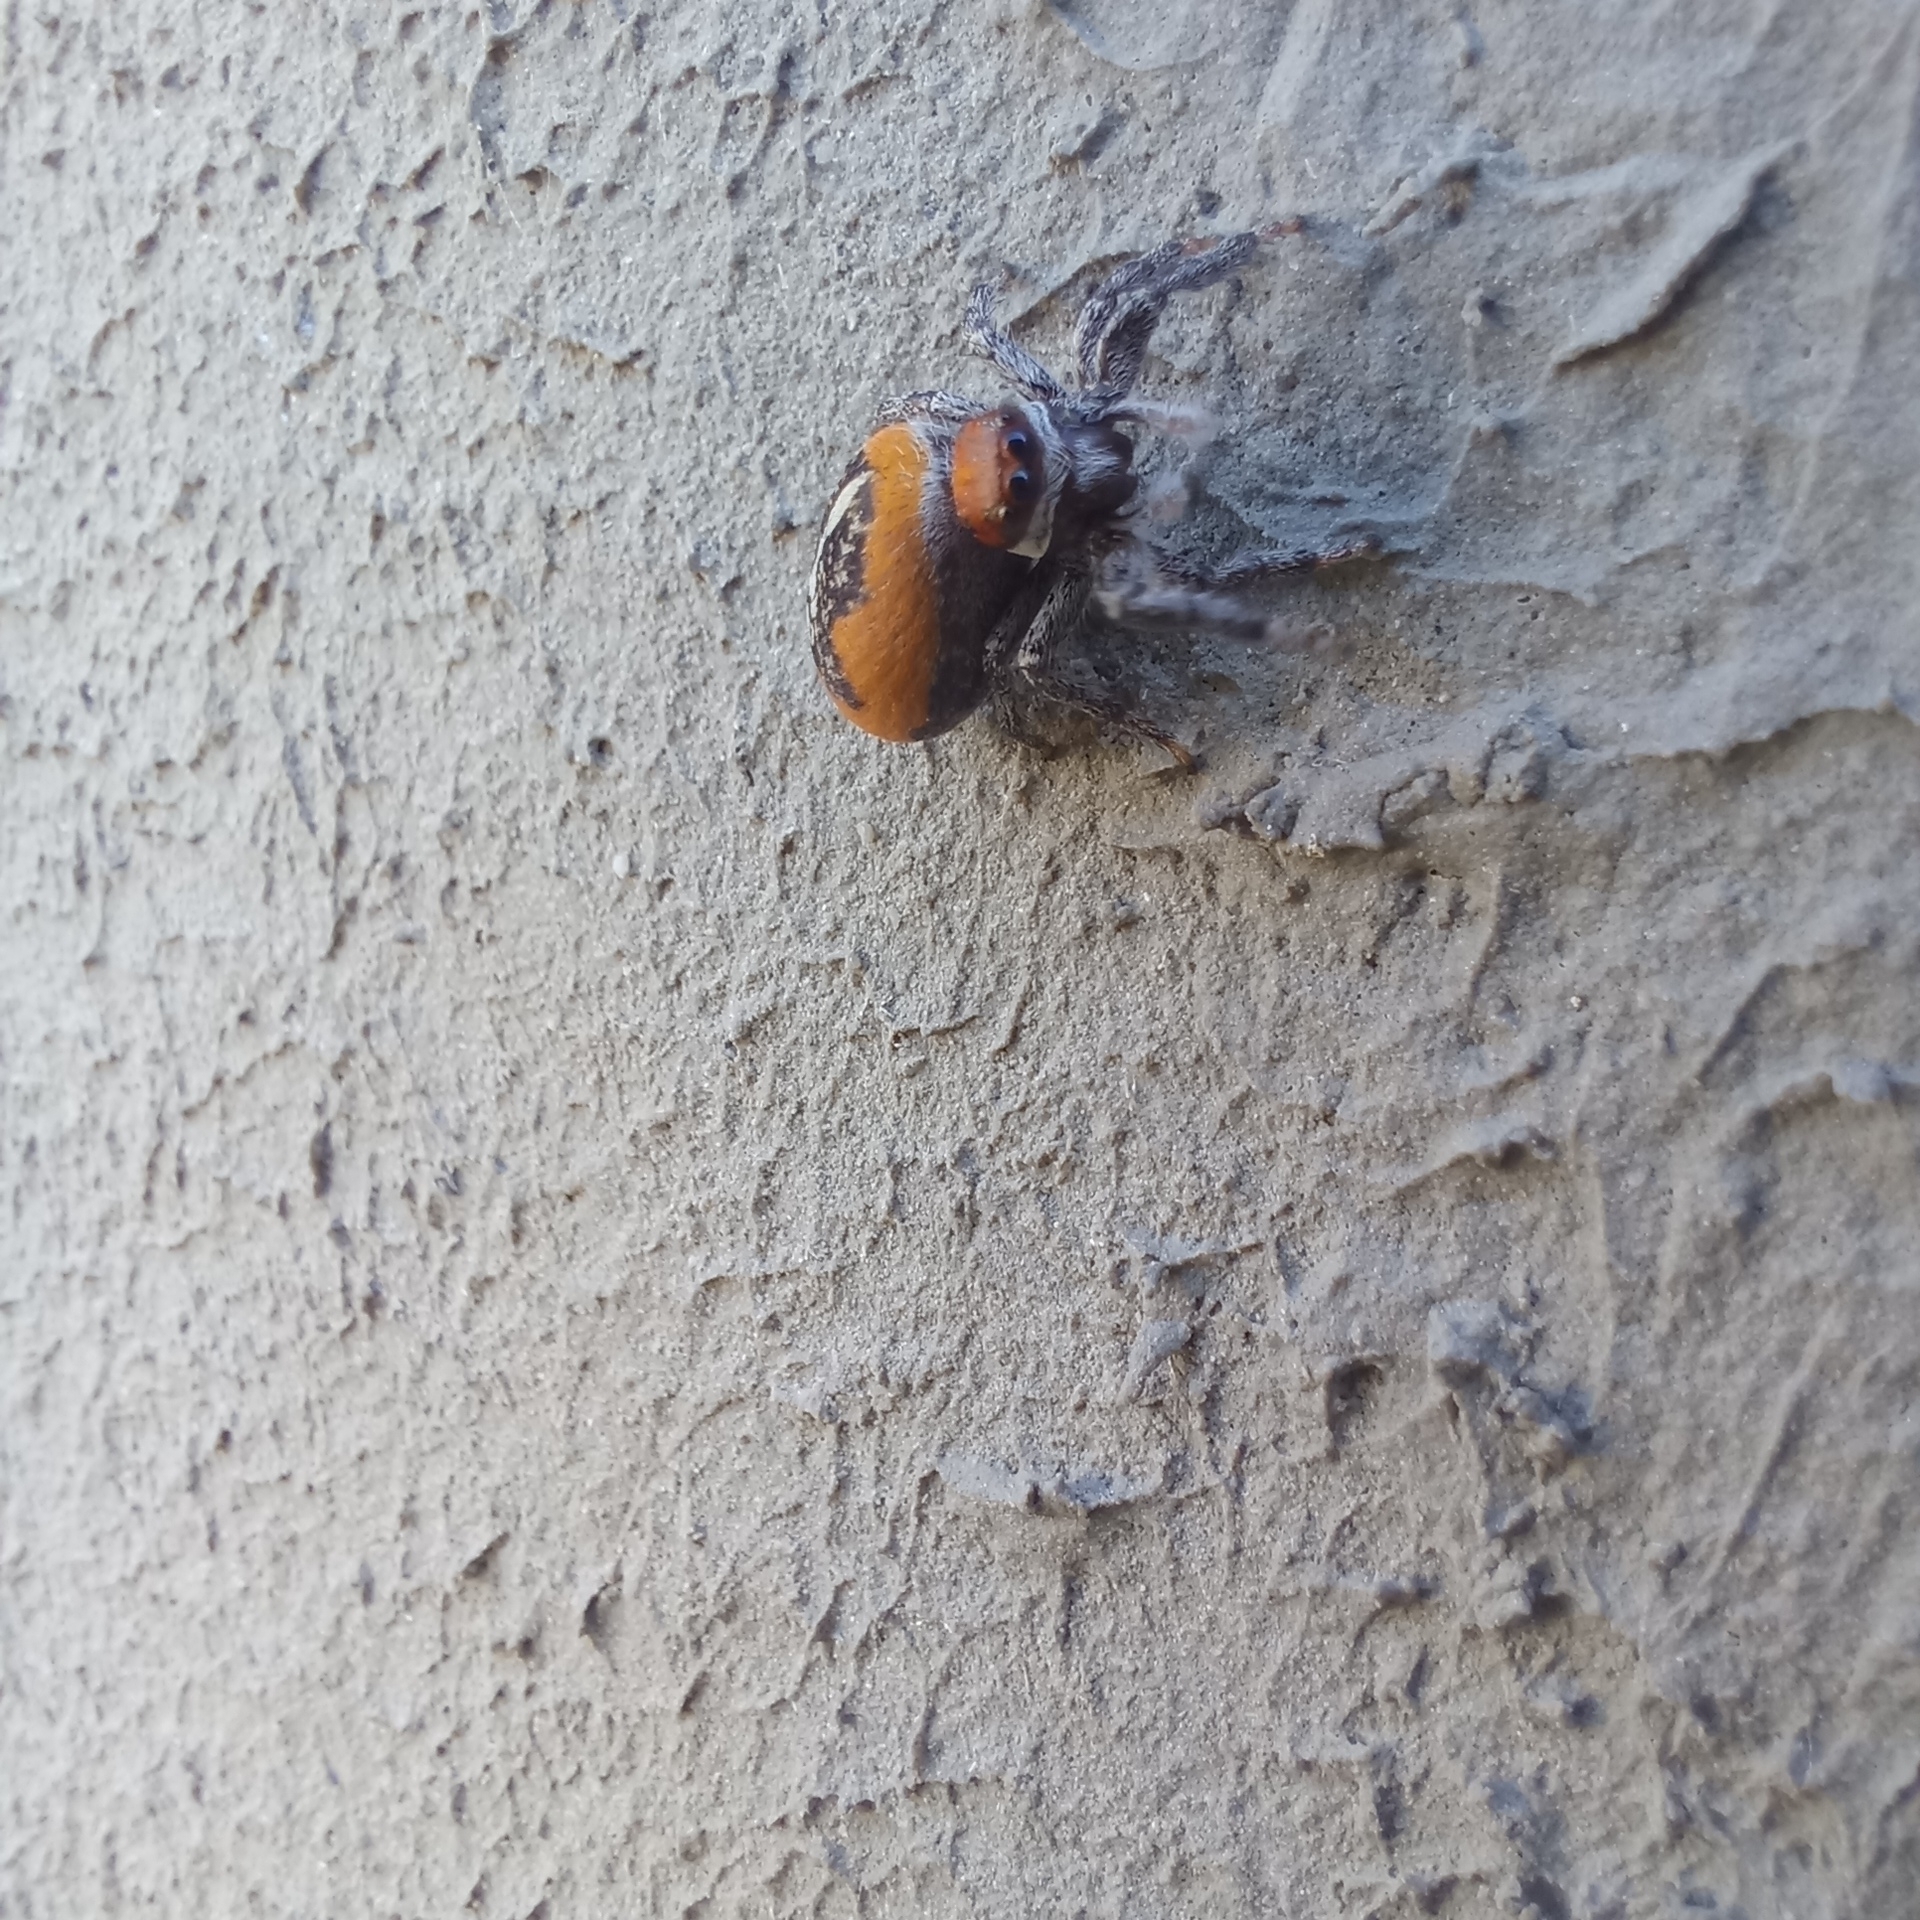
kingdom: Animalia
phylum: Arthropoda
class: Arachnida
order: Araneae
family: Salticidae
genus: Phiale
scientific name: Phiale roburifoliata
